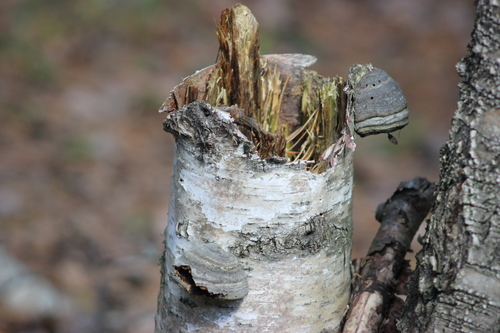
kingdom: Fungi
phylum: Basidiomycota
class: Agaricomycetes
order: Polyporales
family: Polyporaceae
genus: Fomes
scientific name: Fomes fomentarius
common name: Hoof fungus
